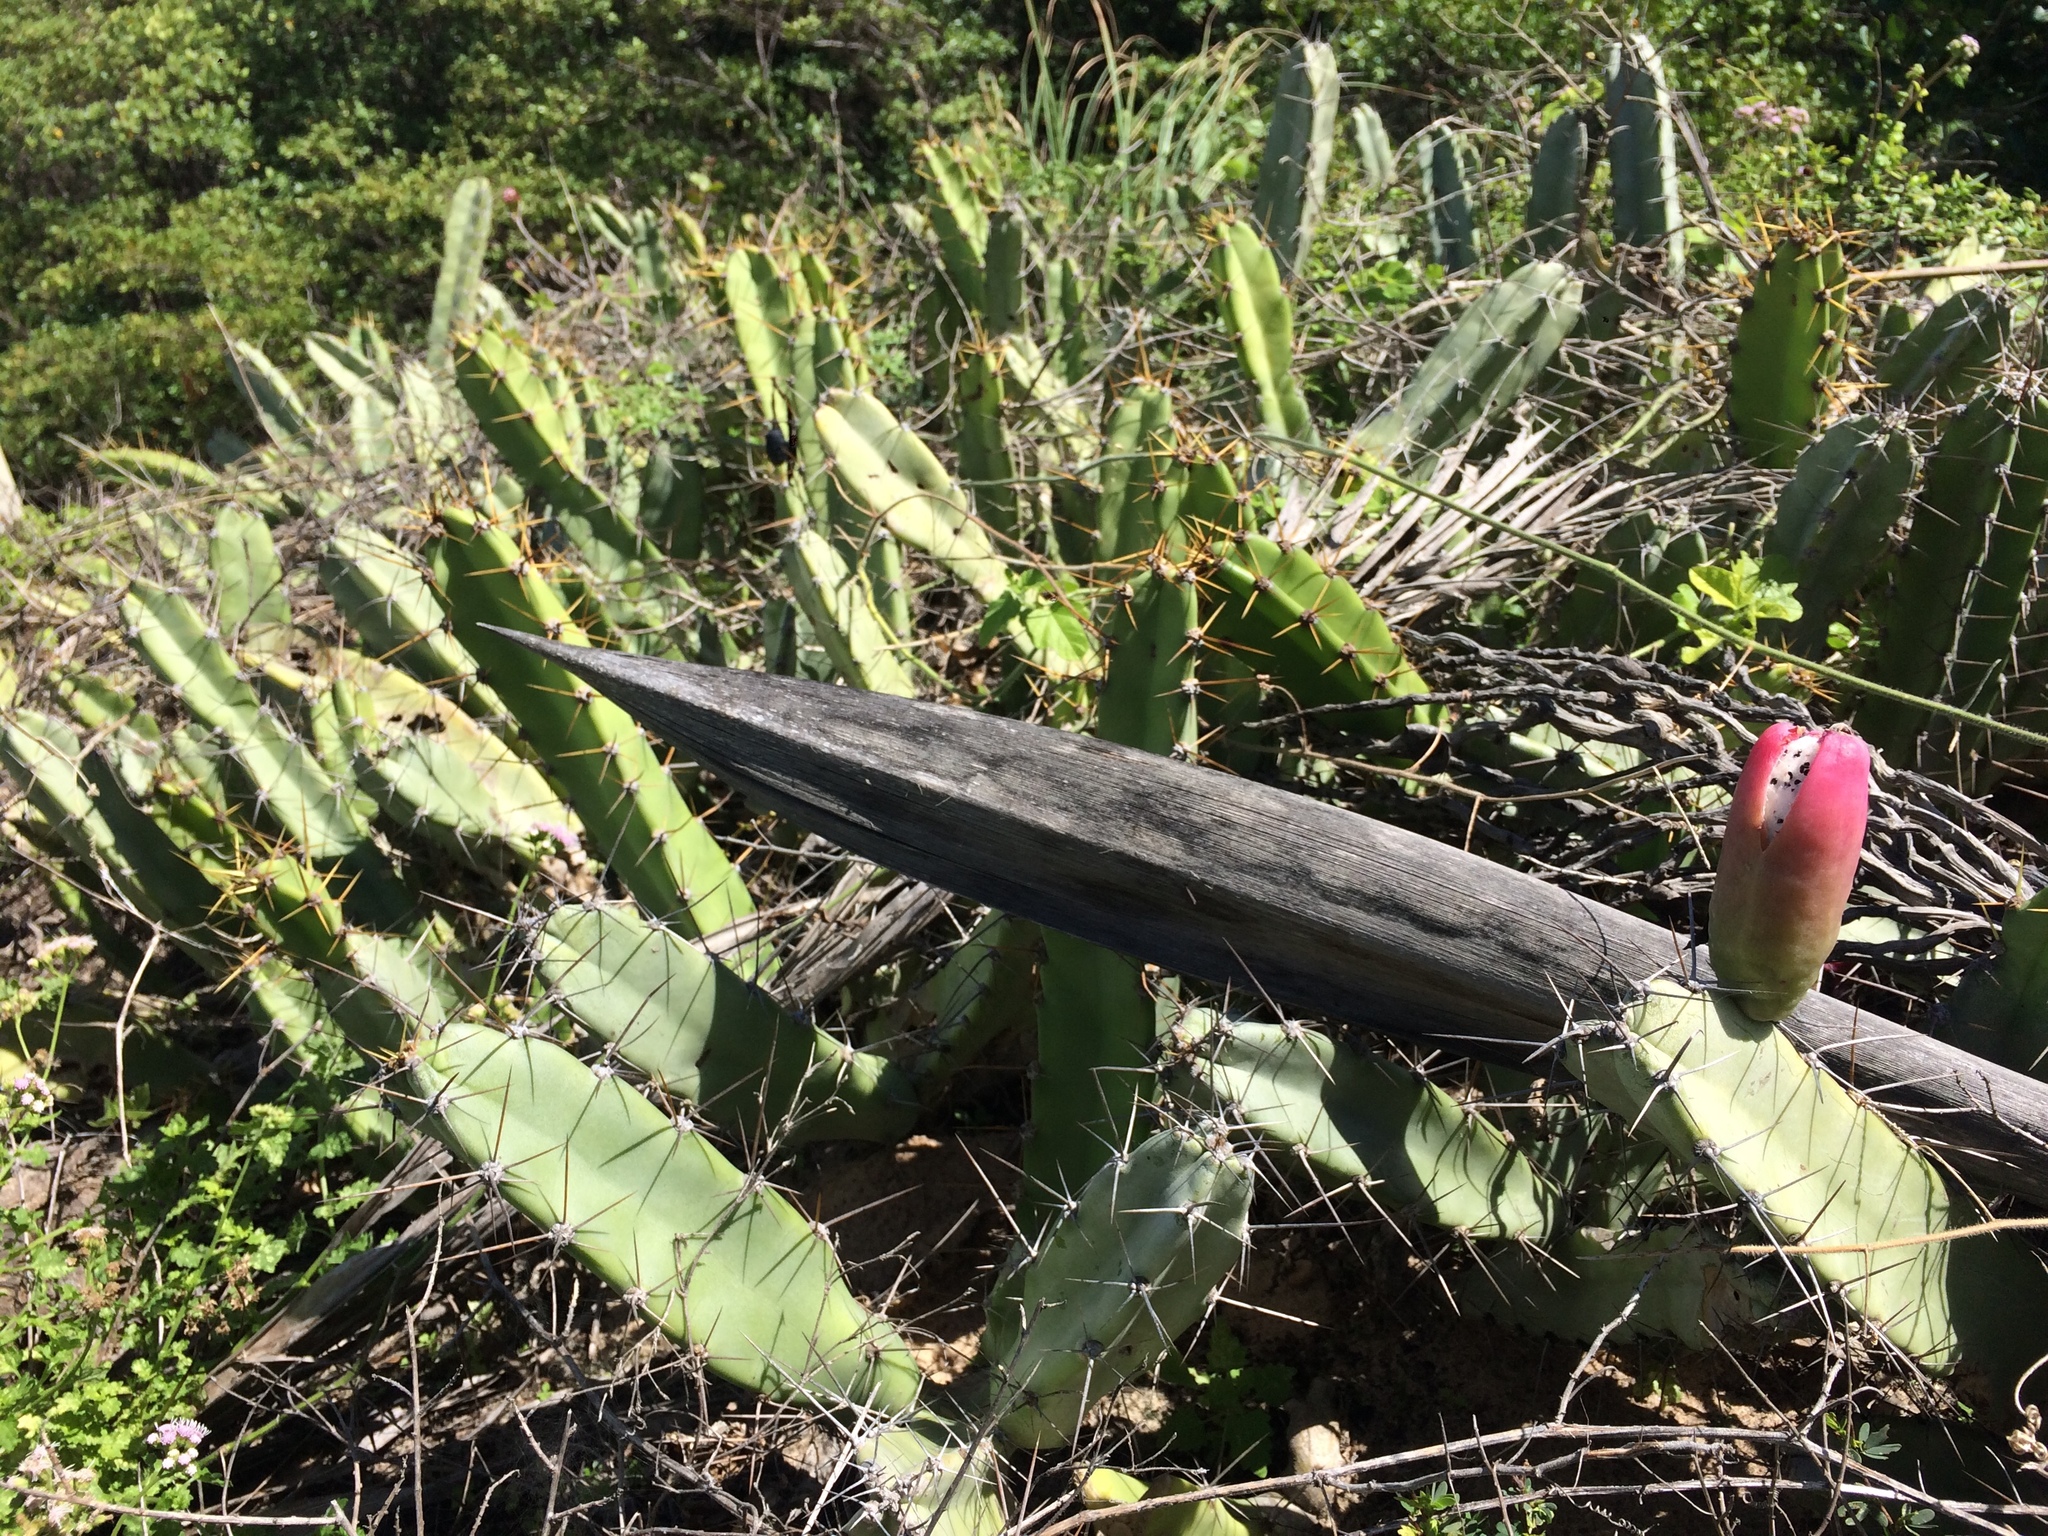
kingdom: Plantae
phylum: Tracheophyta
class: Magnoliopsida
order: Caryophyllales
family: Cactaceae
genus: Cereus
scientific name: Cereus fernambucensis
